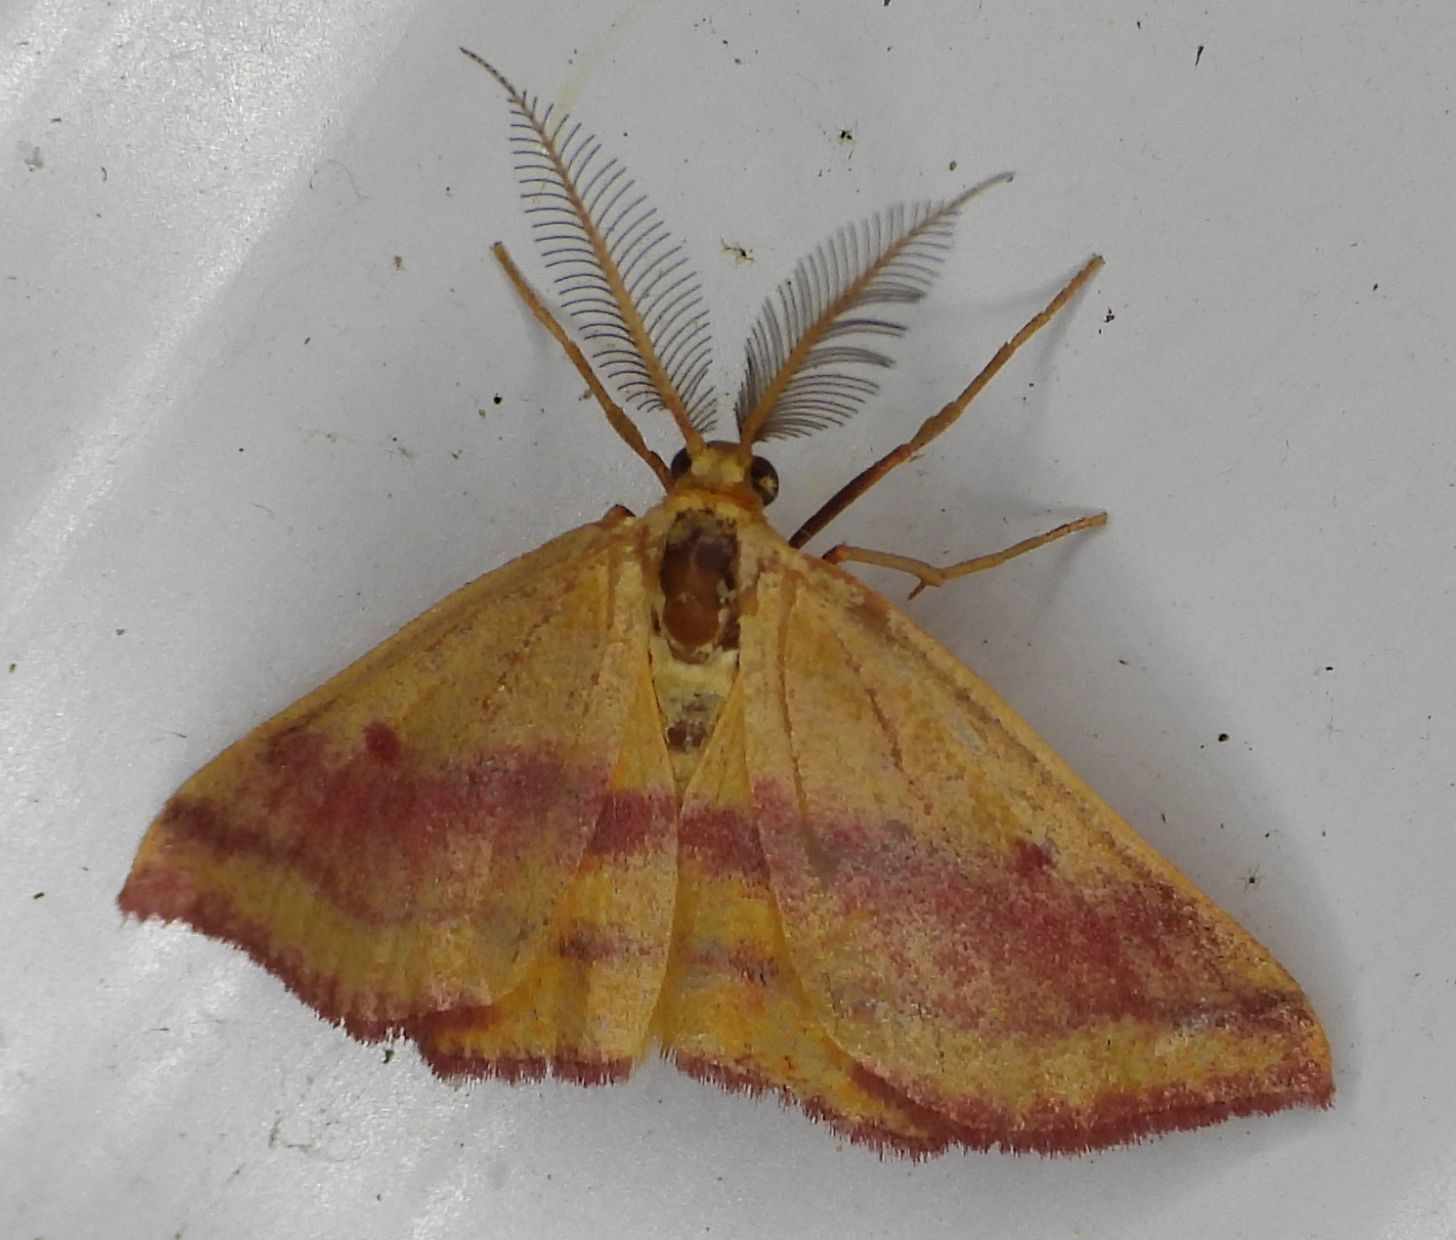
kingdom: Animalia
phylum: Arthropoda
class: Insecta
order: Lepidoptera
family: Geometridae
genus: Haematopis
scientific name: Haematopis grataria
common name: Chickweed geometer
